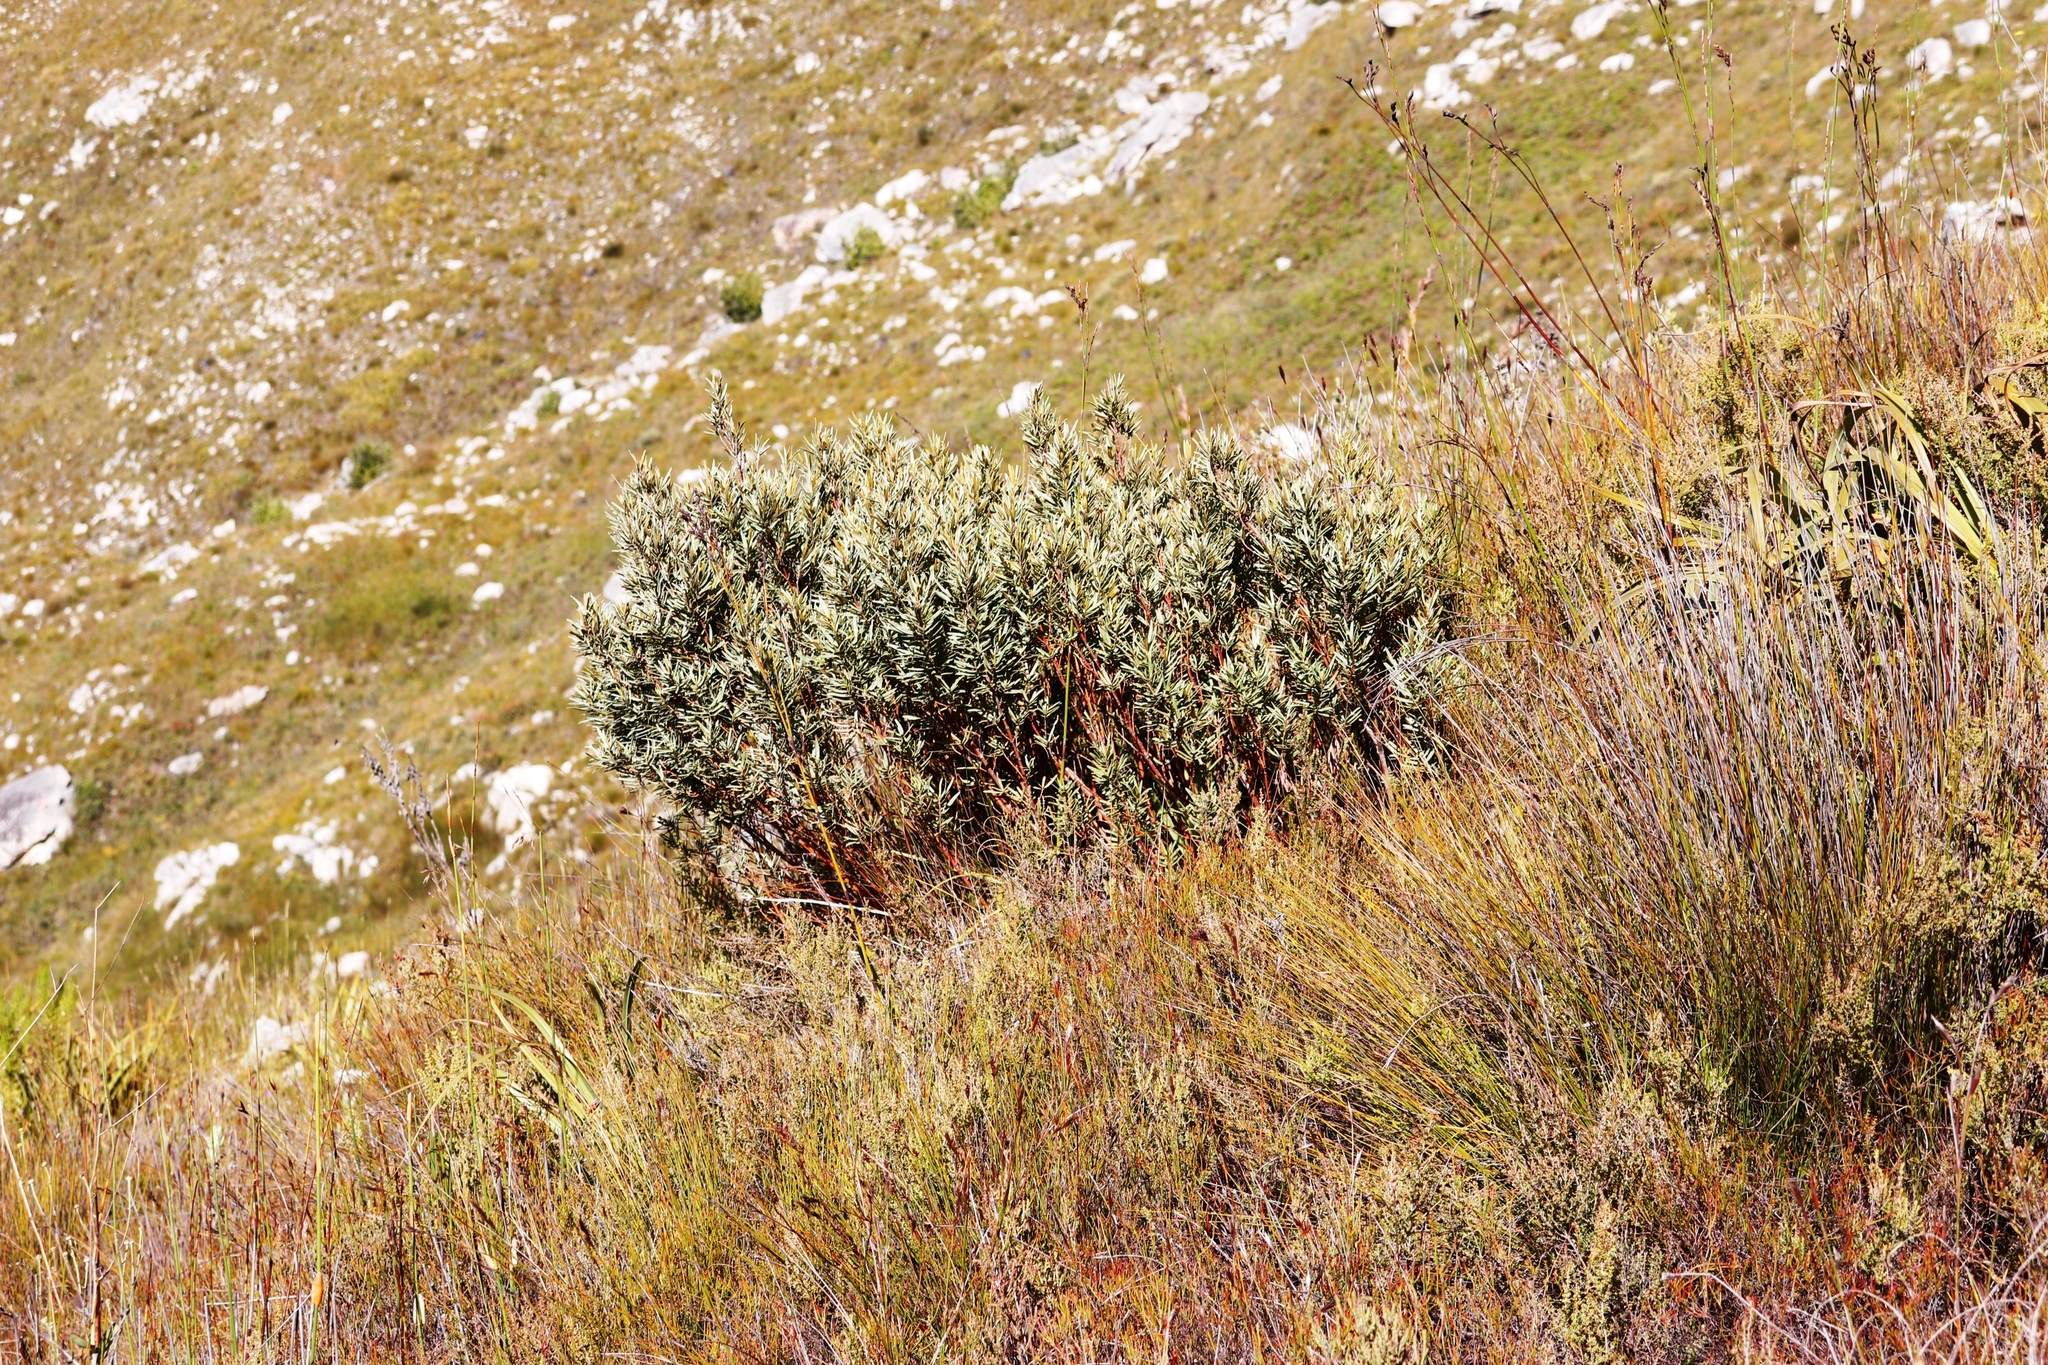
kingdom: Plantae
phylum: Tracheophyta
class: Magnoliopsida
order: Cornales
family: Grubbiaceae
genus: Grubbia
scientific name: Grubbia tomentosa
